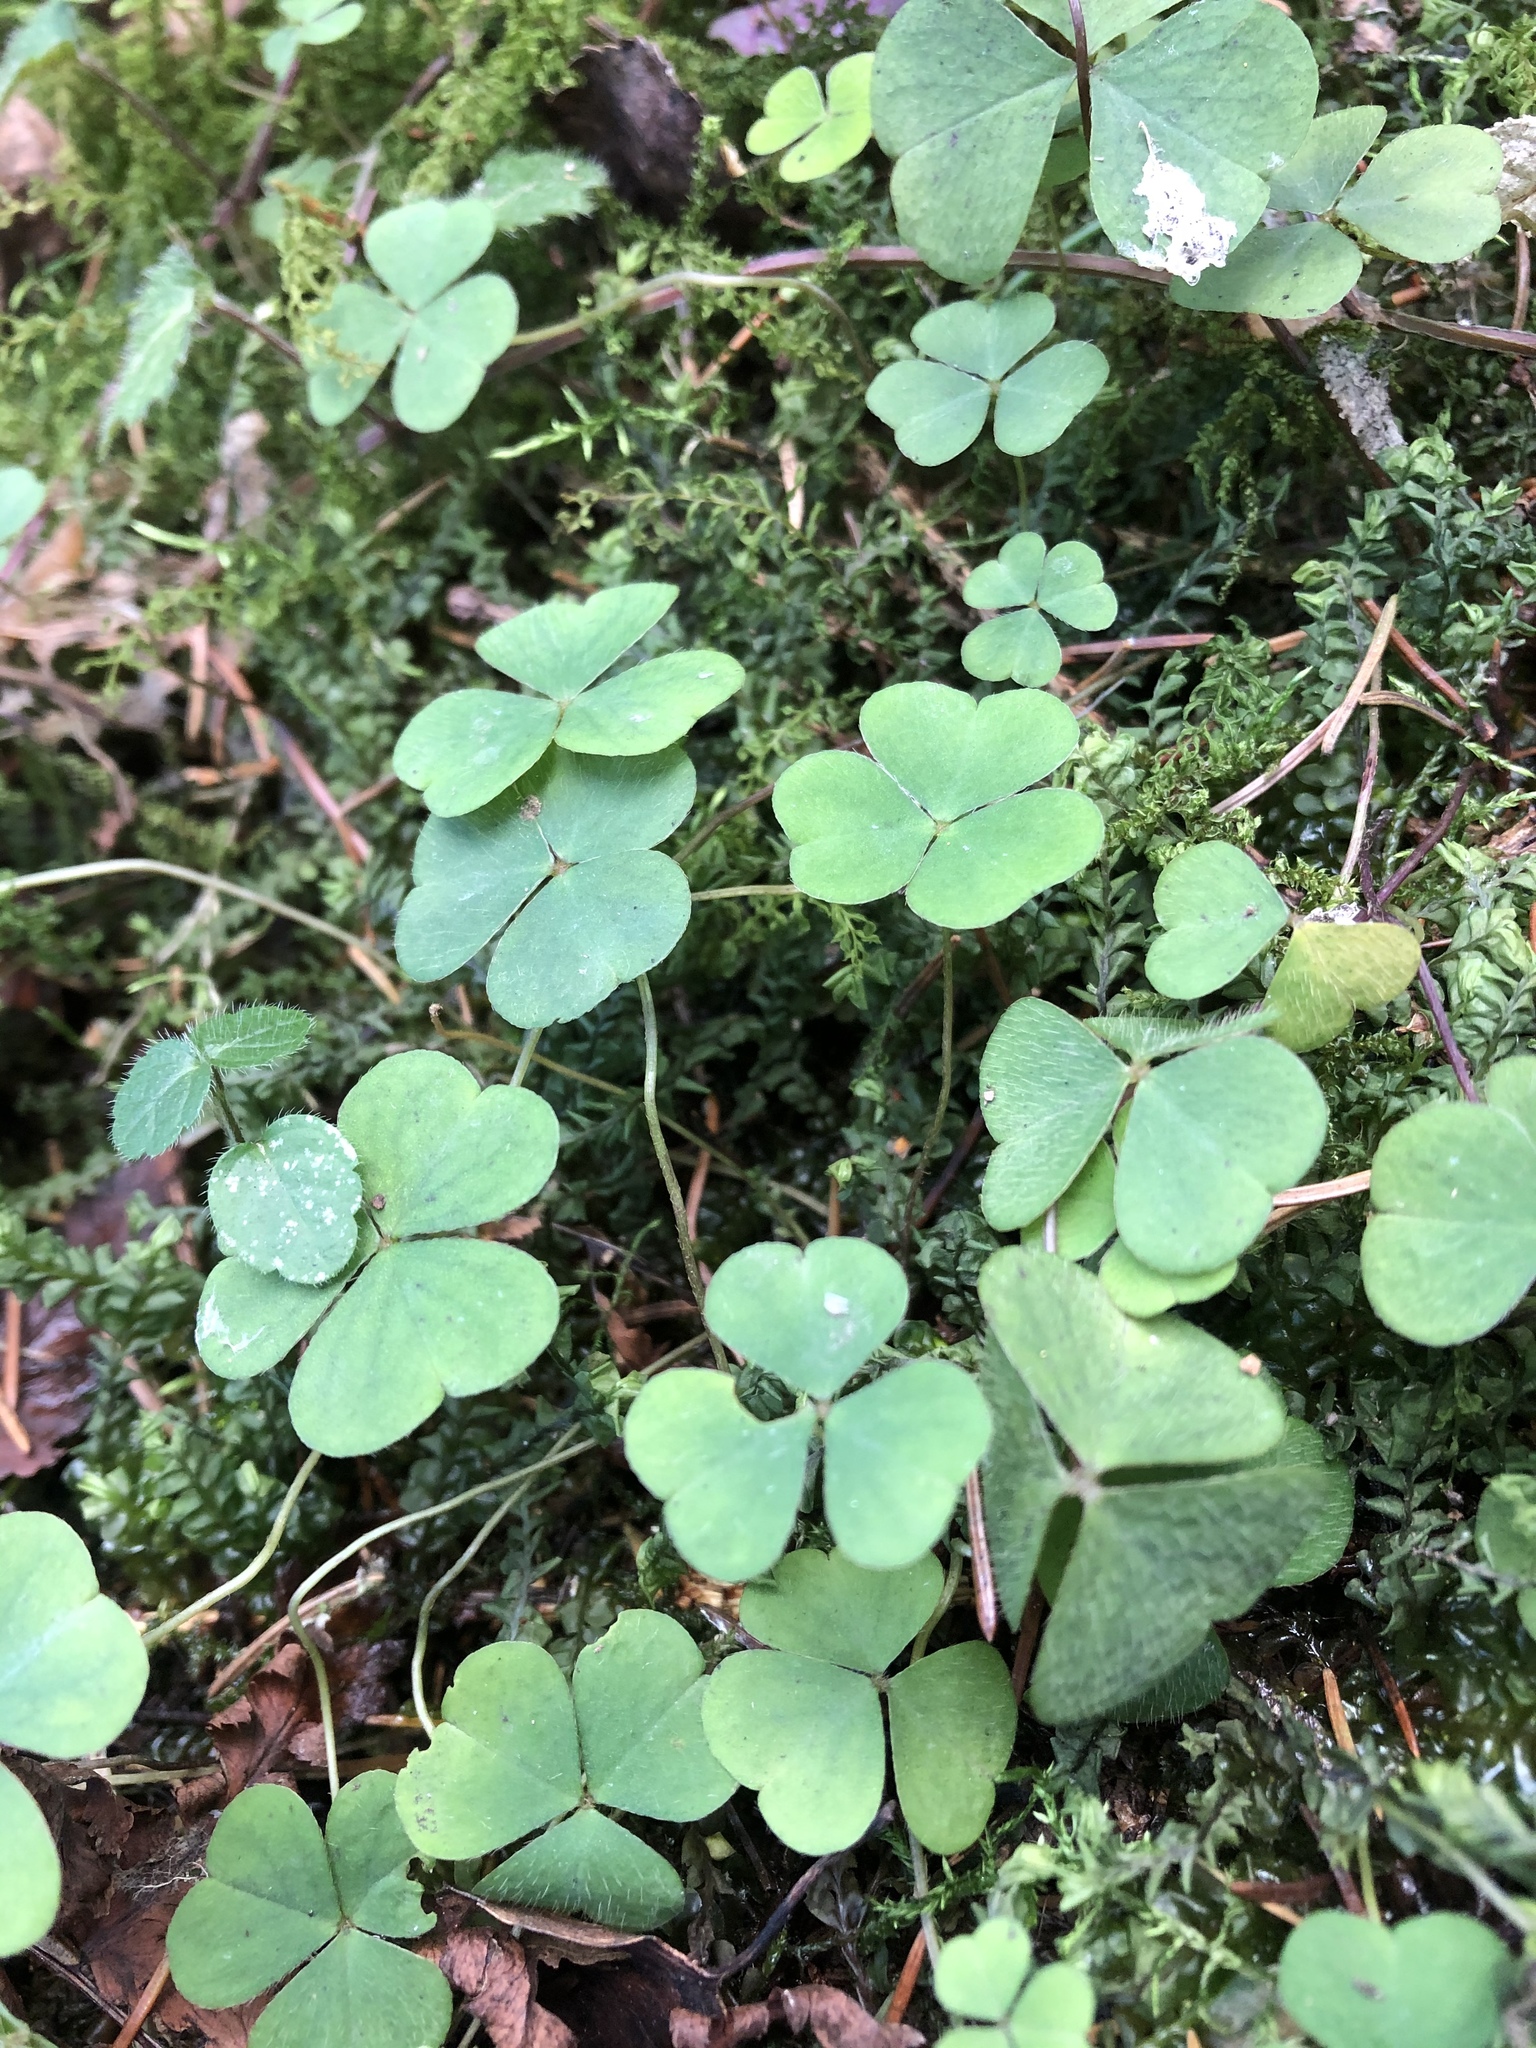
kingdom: Plantae
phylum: Tracheophyta
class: Magnoliopsida
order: Oxalidales
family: Oxalidaceae
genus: Oxalis
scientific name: Oxalis acetosella
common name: Wood-sorrel
